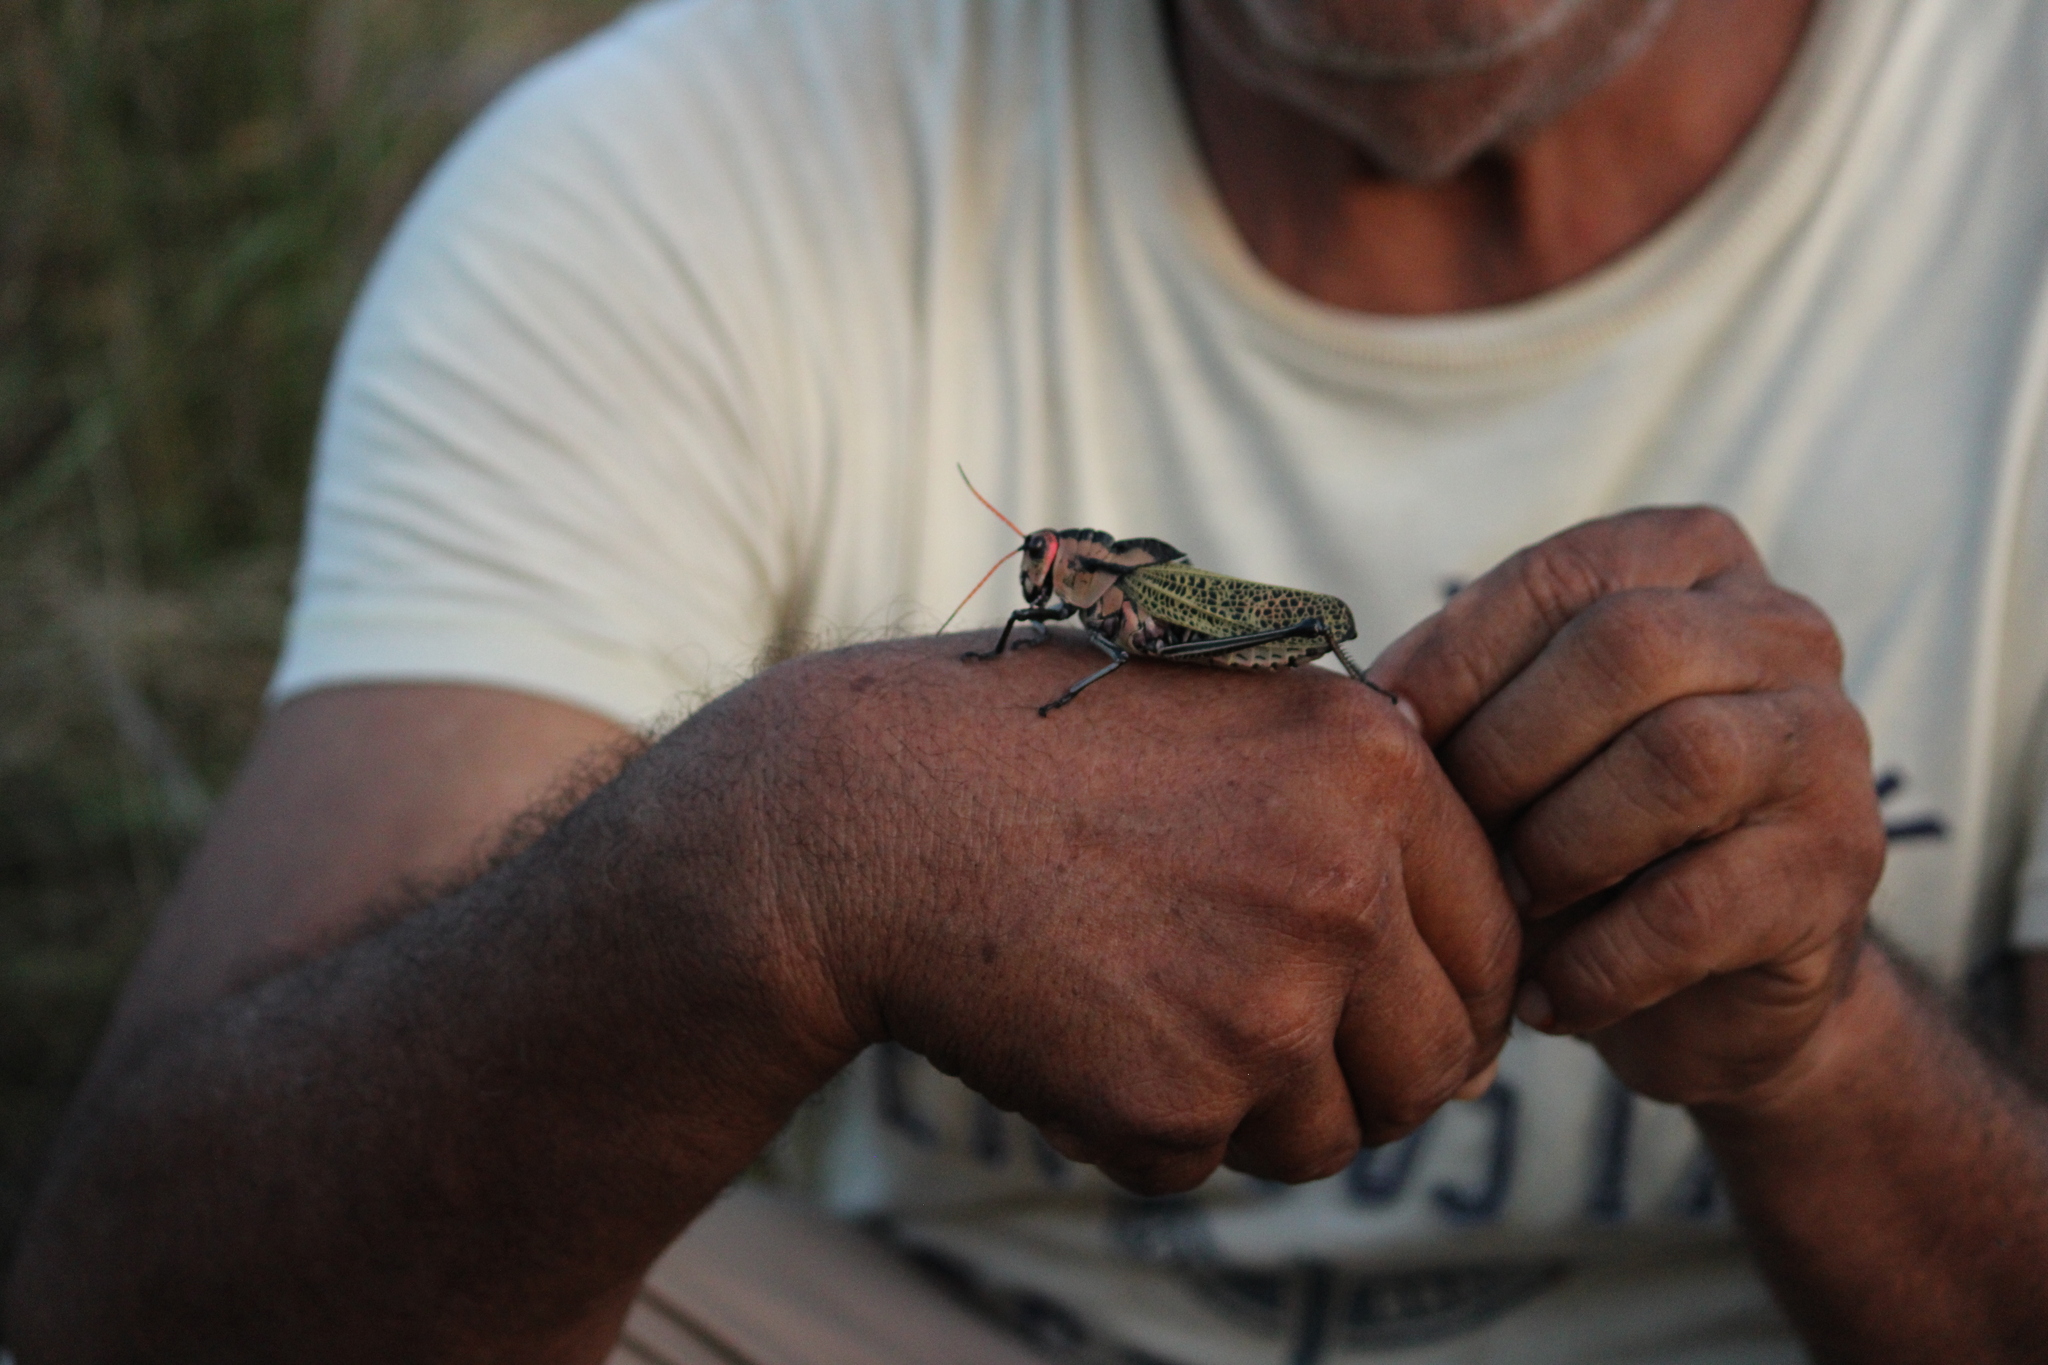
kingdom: Animalia
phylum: Arthropoda
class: Insecta
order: Orthoptera
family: Romaleidae
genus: Romalea
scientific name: Romalea
